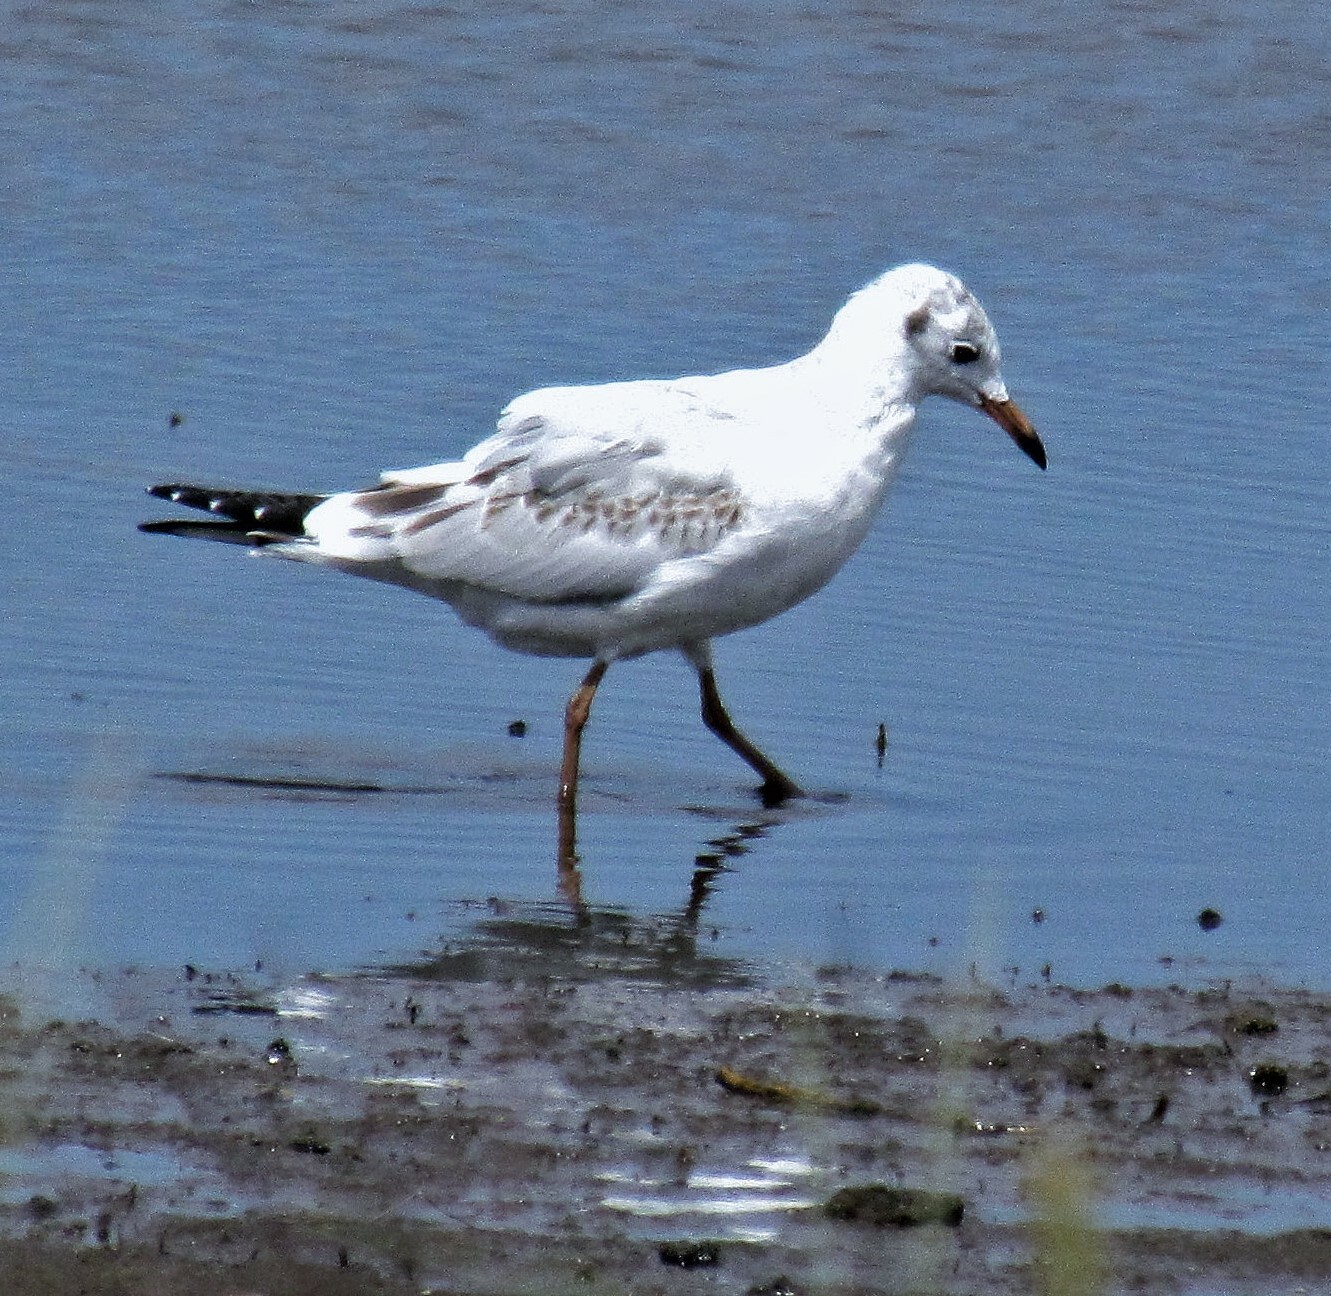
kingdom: Animalia
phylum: Chordata
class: Aves
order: Charadriiformes
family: Laridae
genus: Chroicocephalus
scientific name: Chroicocephalus maculipennis
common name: Brown-hooded gull
